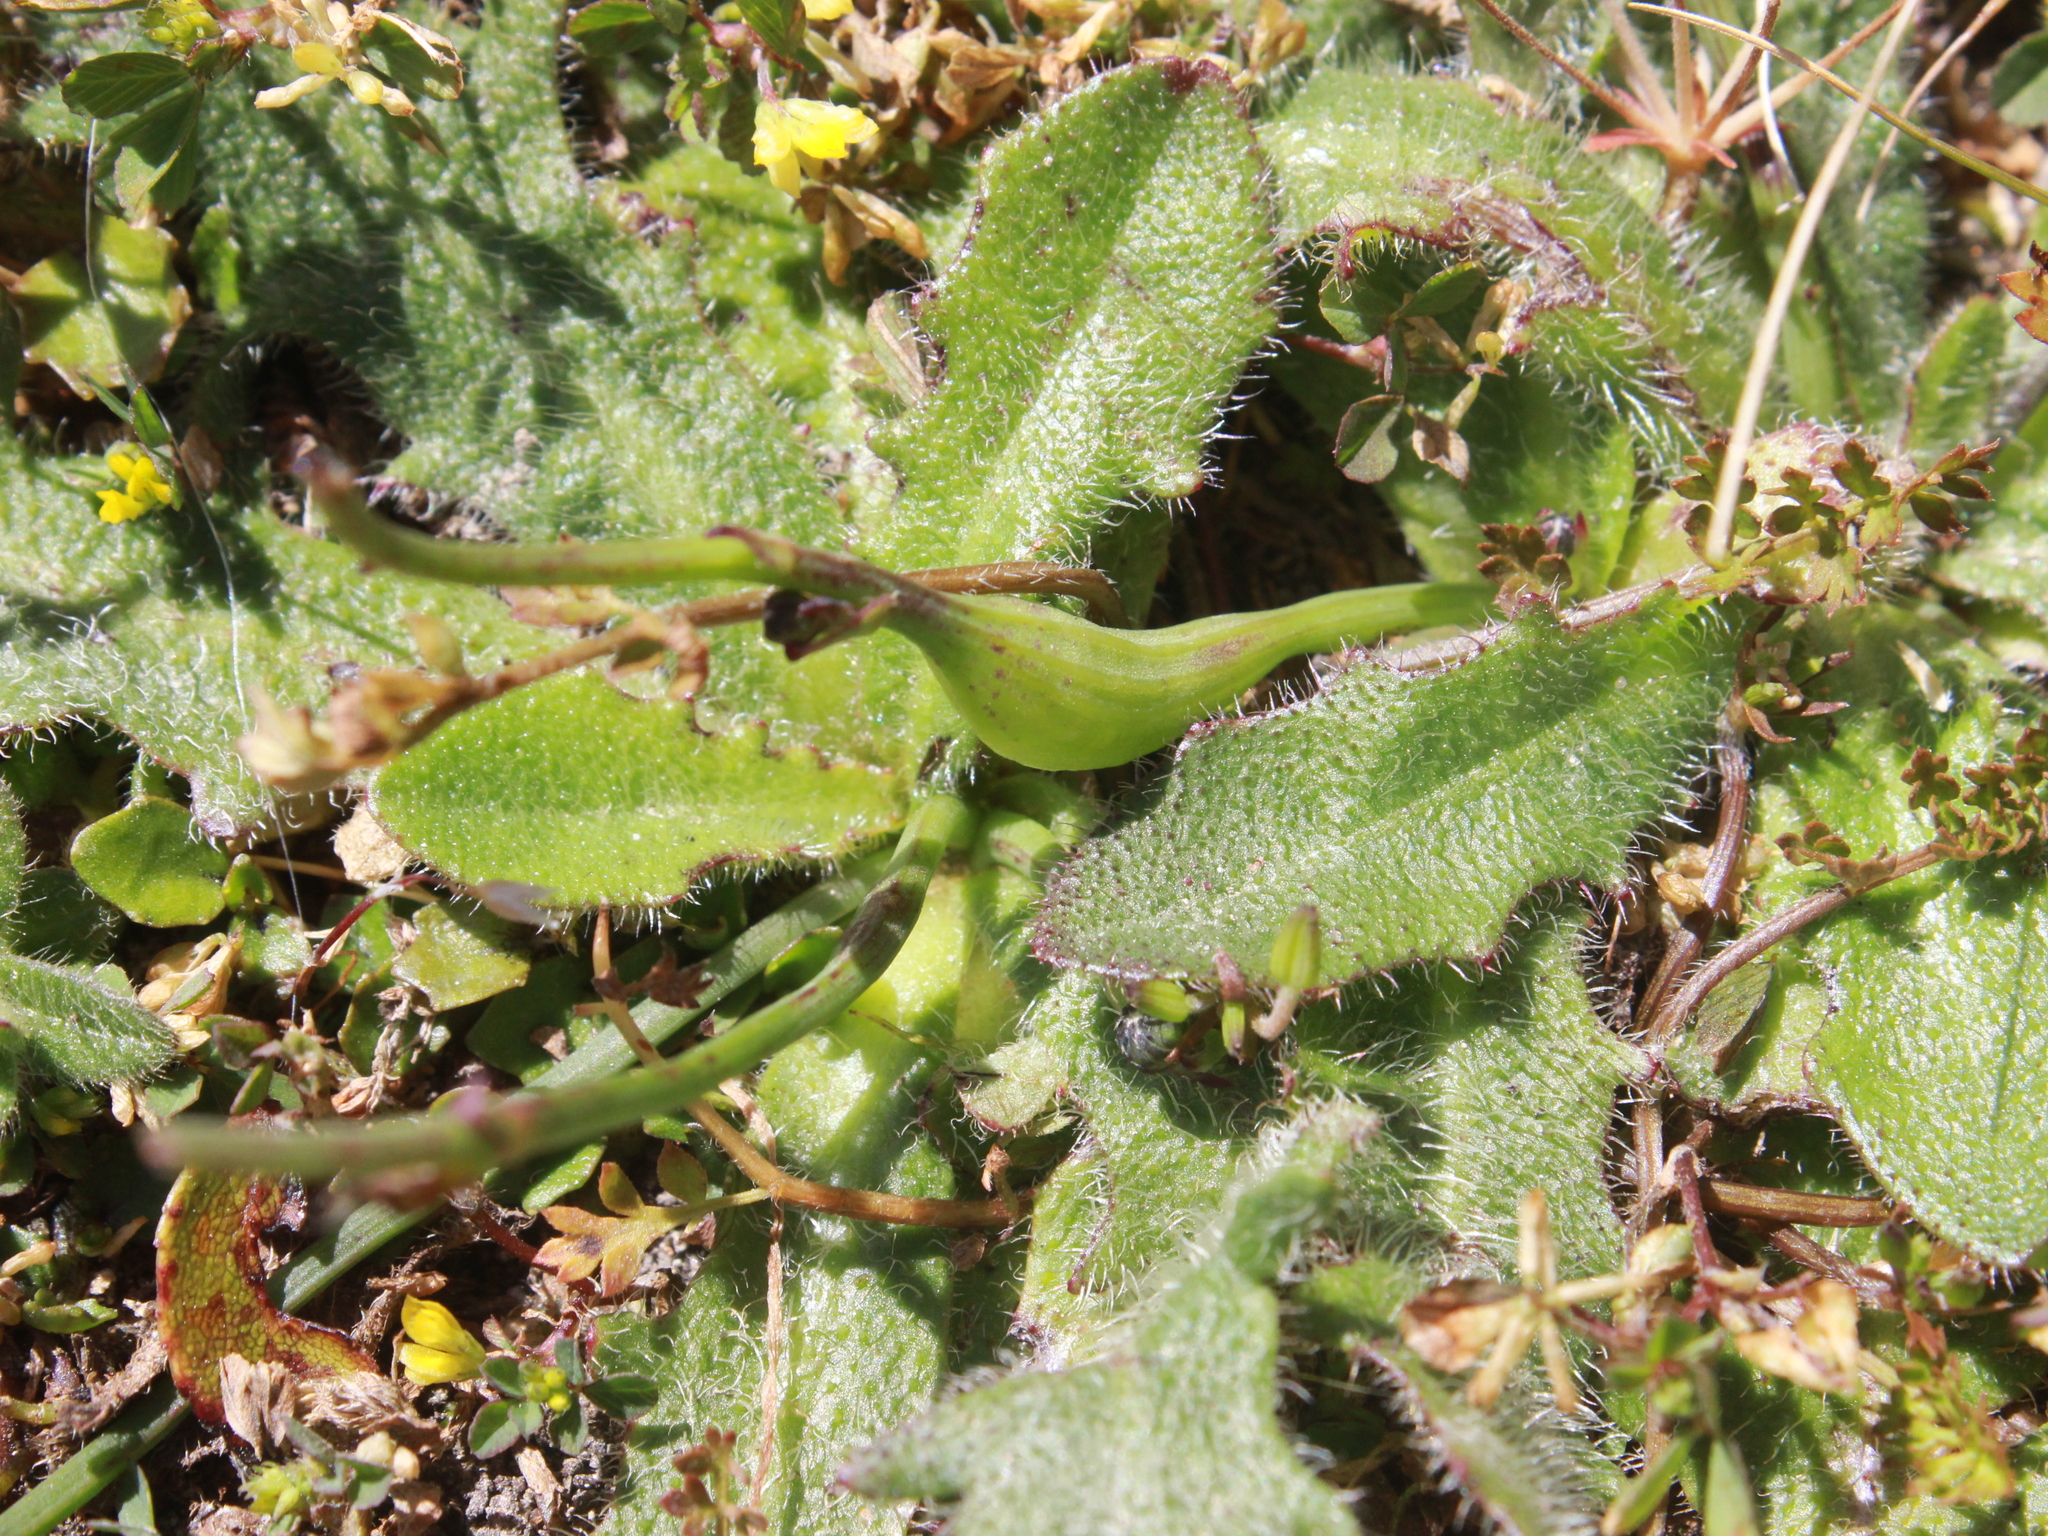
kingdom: Animalia
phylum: Arthropoda
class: Insecta
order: Hymenoptera
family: Cynipidae
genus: Phanacis
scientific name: Phanacis hypochoeridis
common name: Gall wasp
